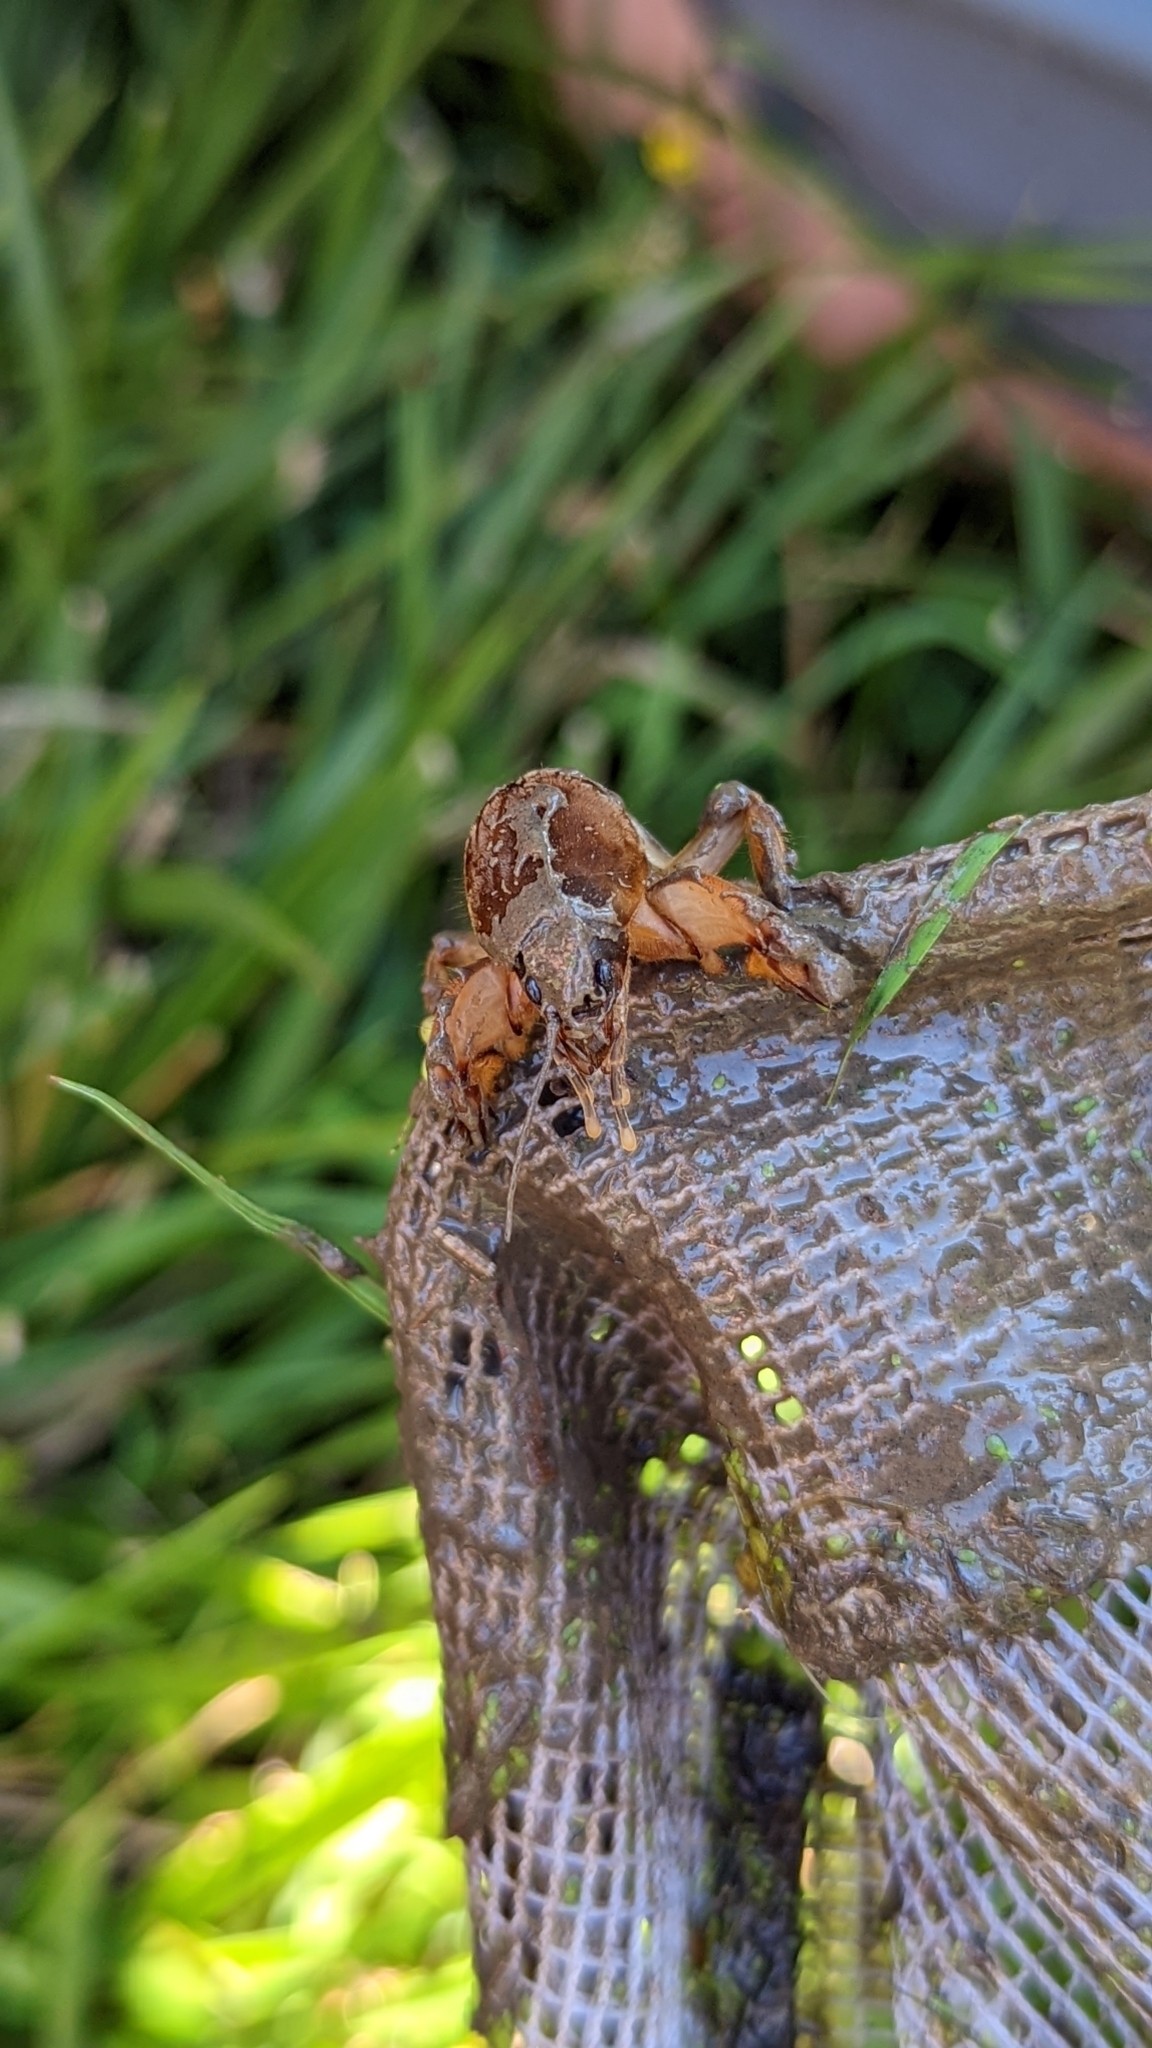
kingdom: Animalia
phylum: Arthropoda
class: Insecta
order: Orthoptera
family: Gryllotalpidae
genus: Neocurtilla
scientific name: Neocurtilla hexadactyla
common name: Northern mole cricket
